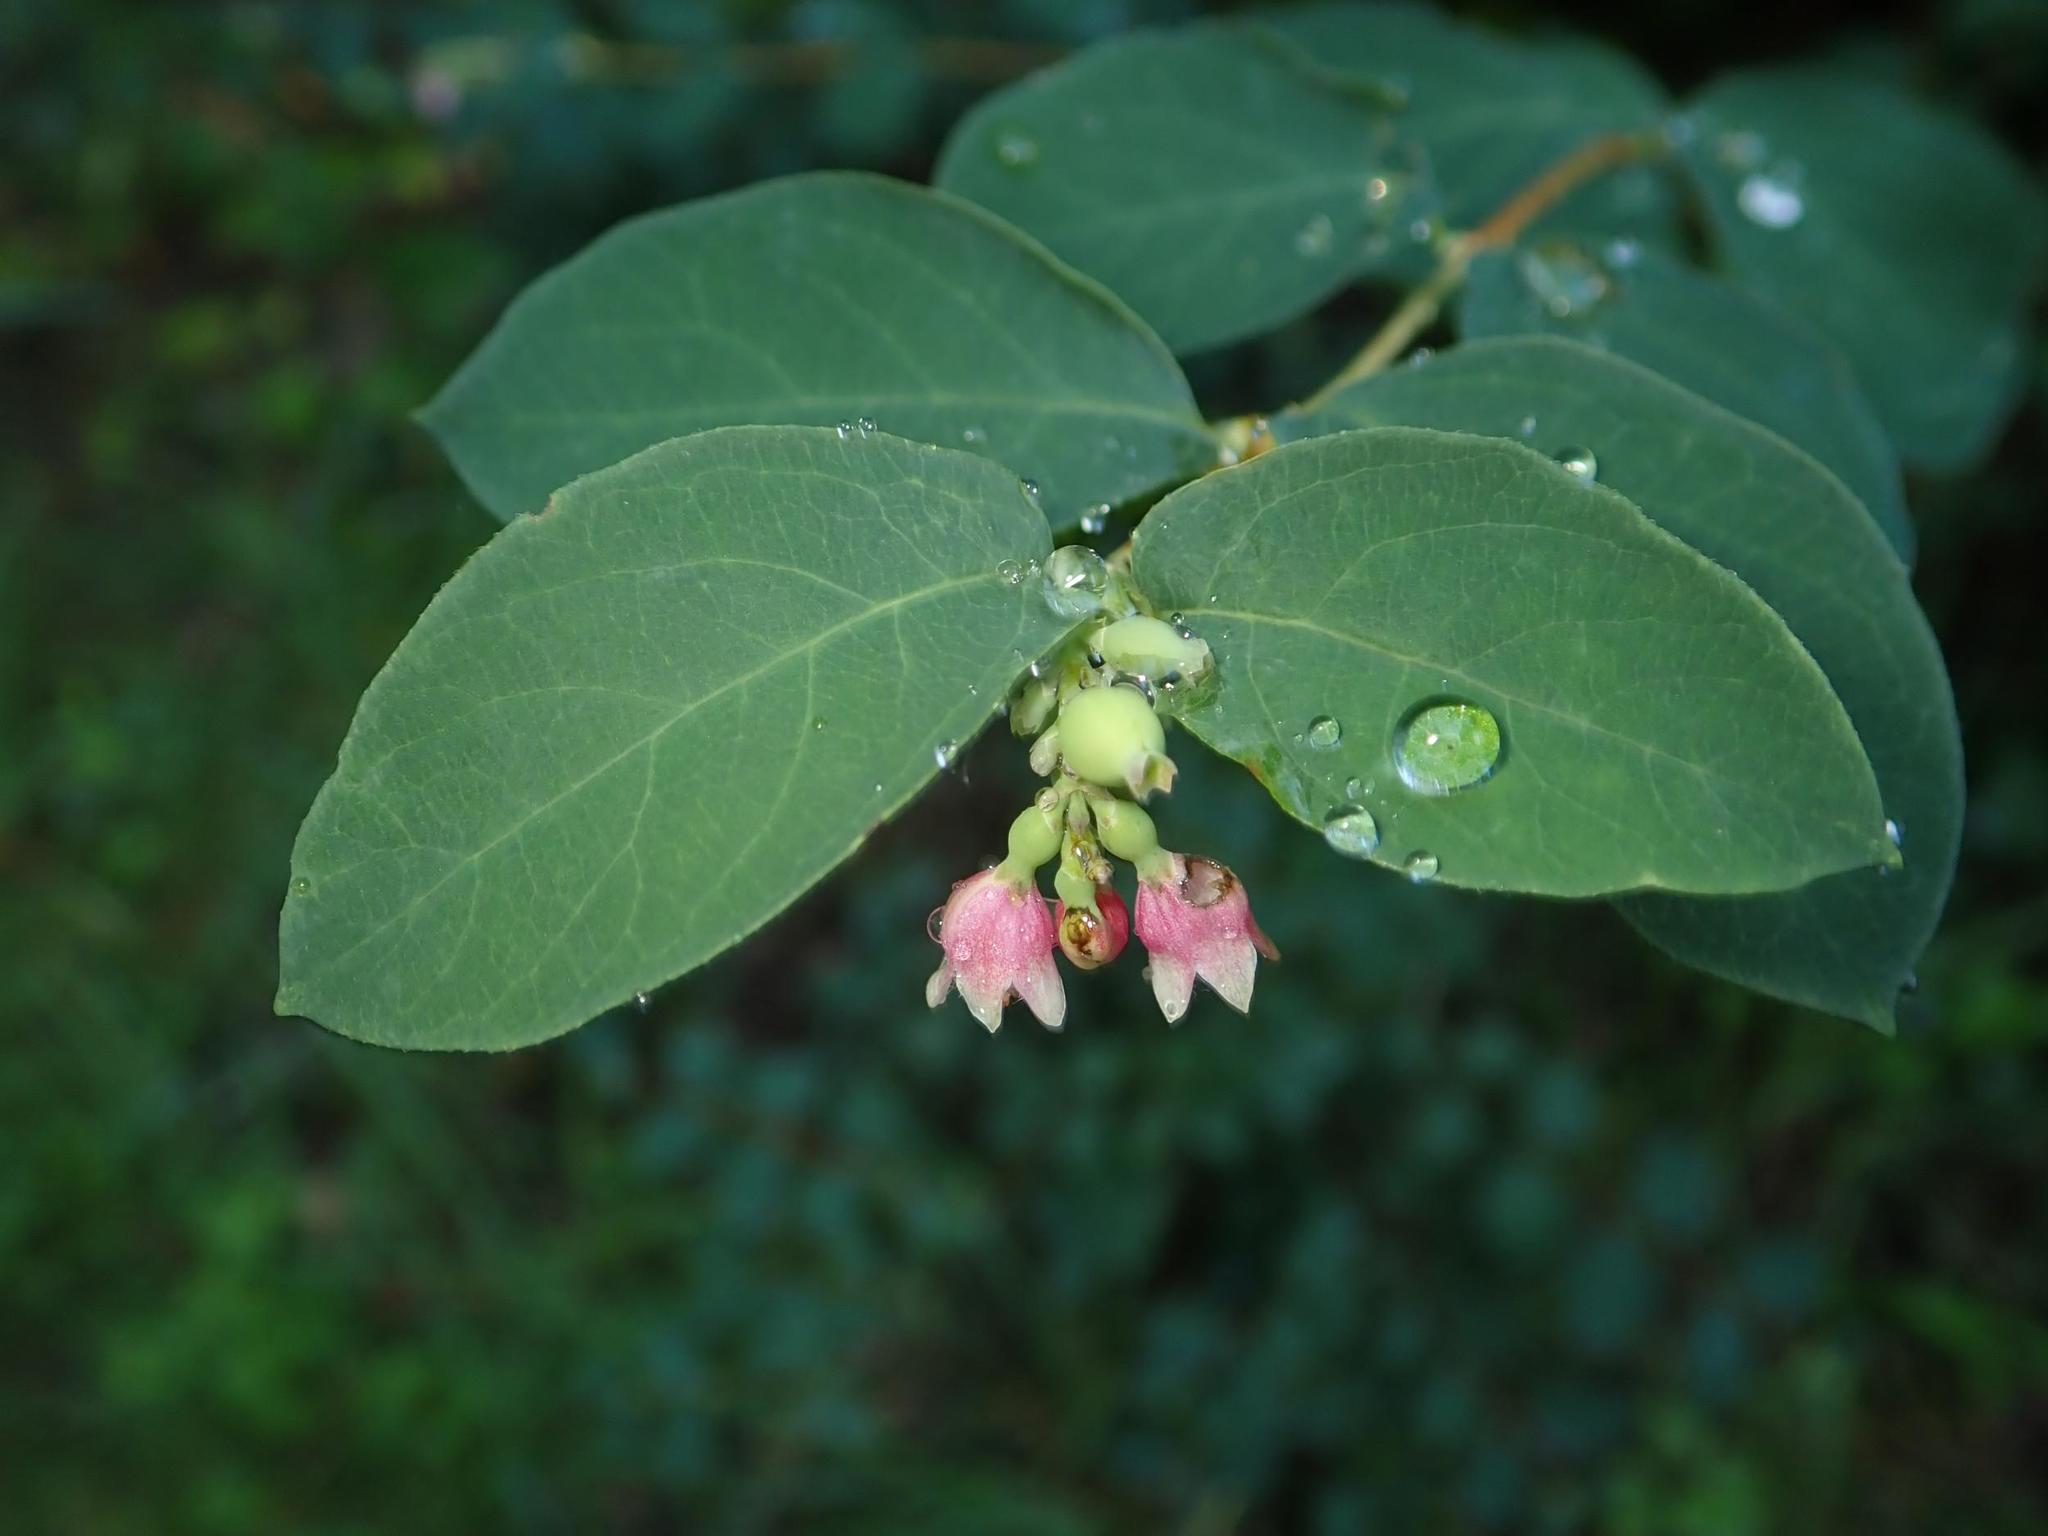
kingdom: Plantae
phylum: Tracheophyta
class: Magnoliopsida
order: Dipsacales
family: Caprifoliaceae
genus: Symphoricarpos
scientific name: Symphoricarpos albus
